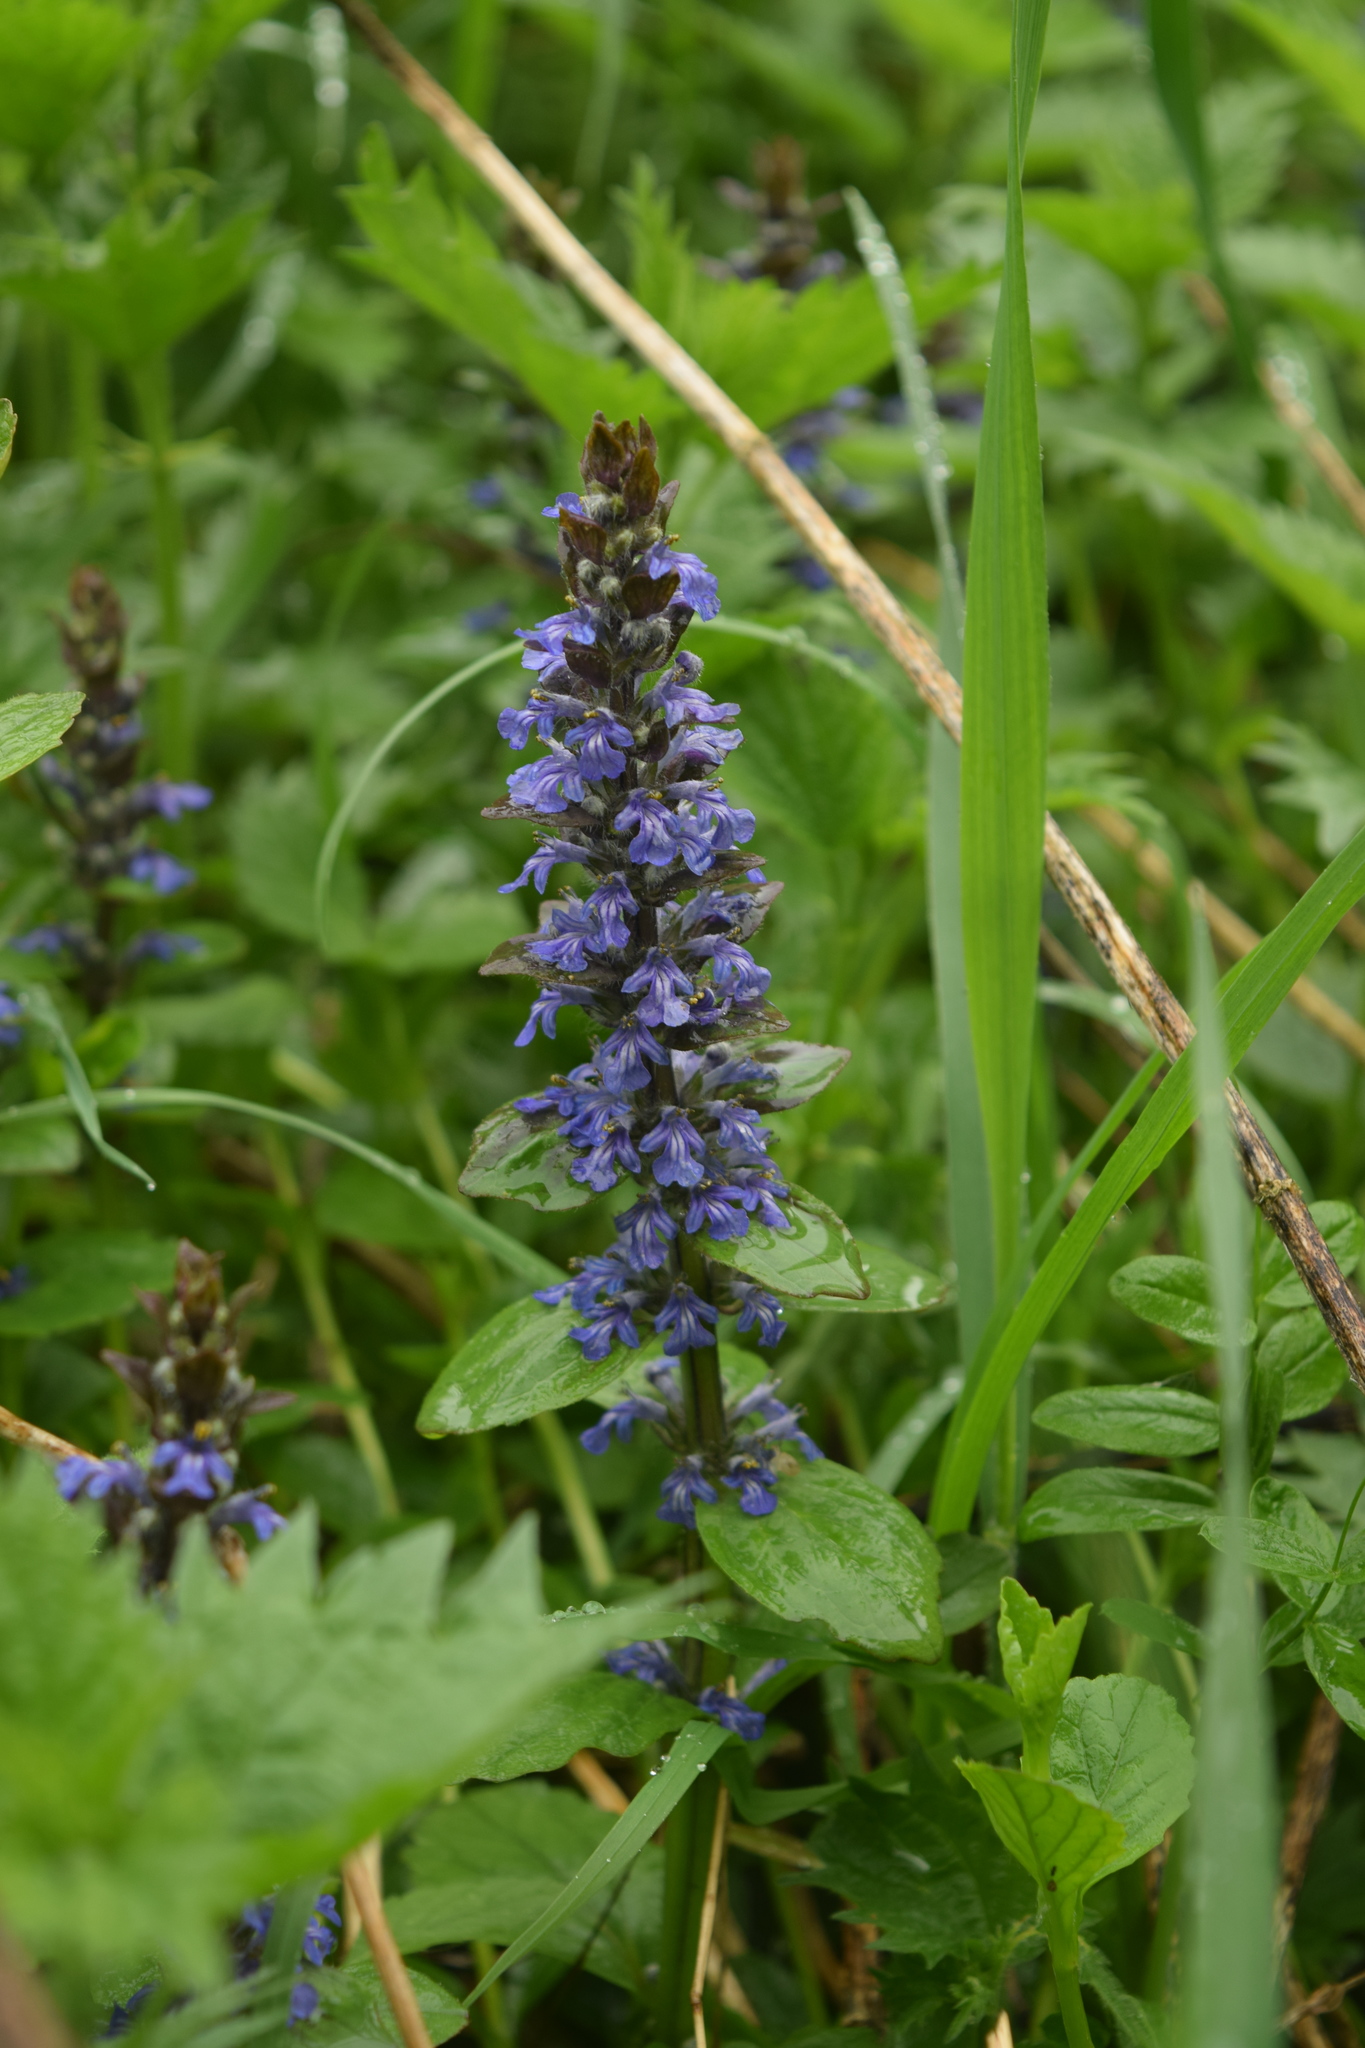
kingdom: Plantae
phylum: Tracheophyta
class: Magnoliopsida
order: Lamiales
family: Lamiaceae
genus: Ajuga
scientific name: Ajuga reptans
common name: Bugle
